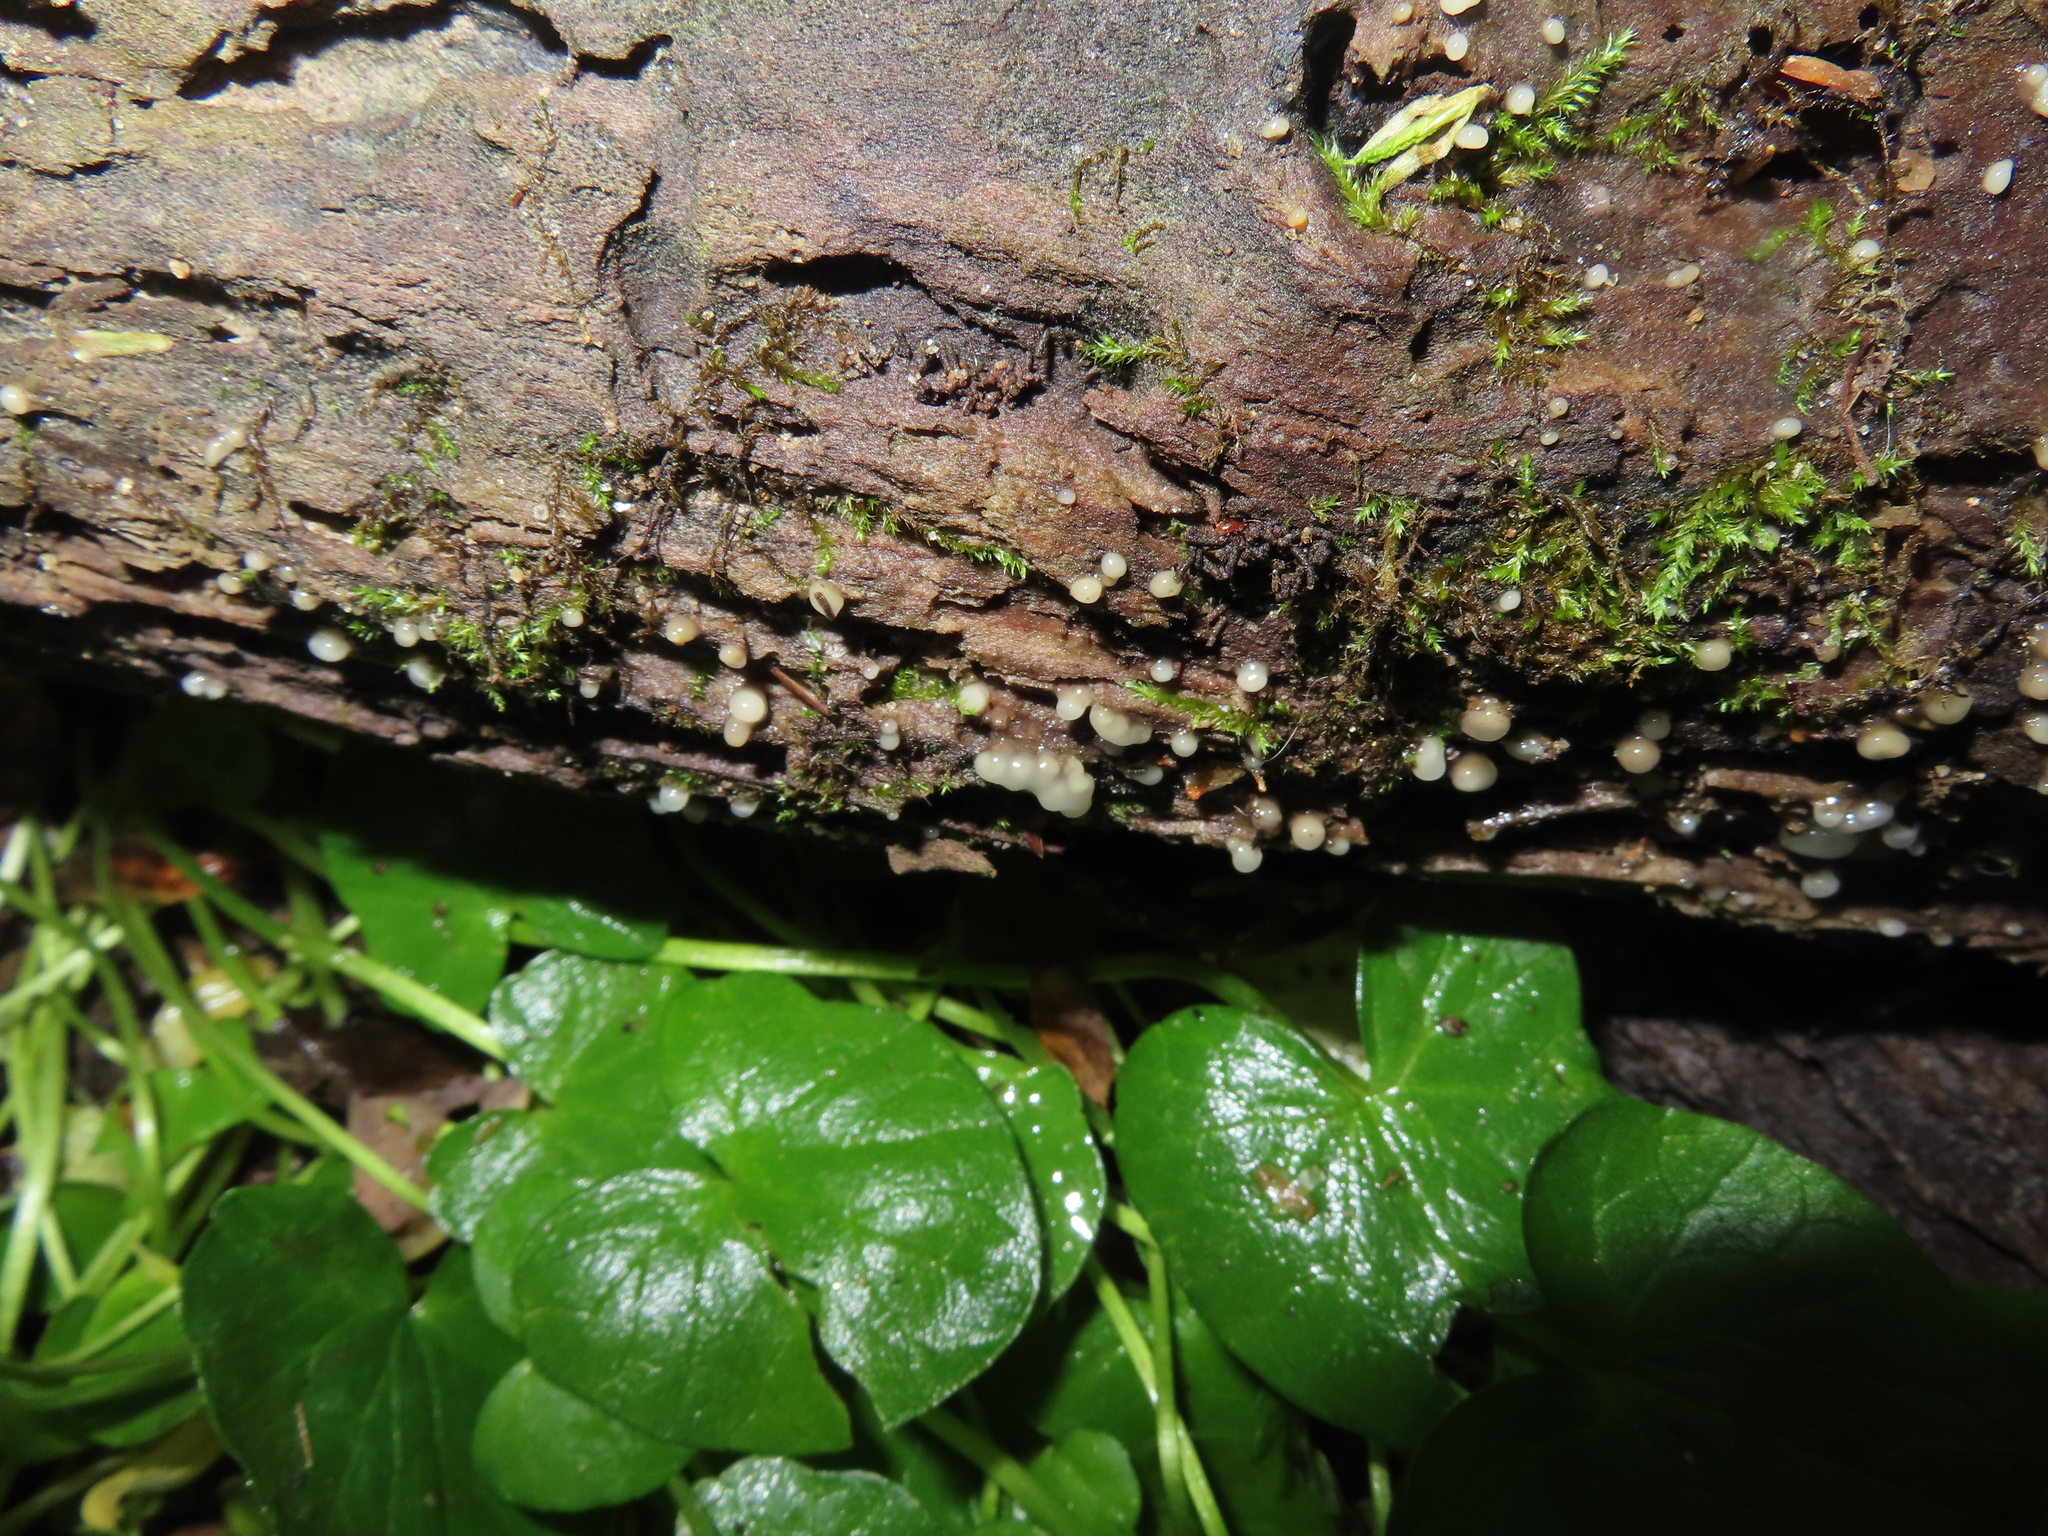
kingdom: Fungi
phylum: Basidiomycota
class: Atractiellomycetes
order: Atractiellales
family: Phleogenaceae
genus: Helicogloea
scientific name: Helicogloea compressa
